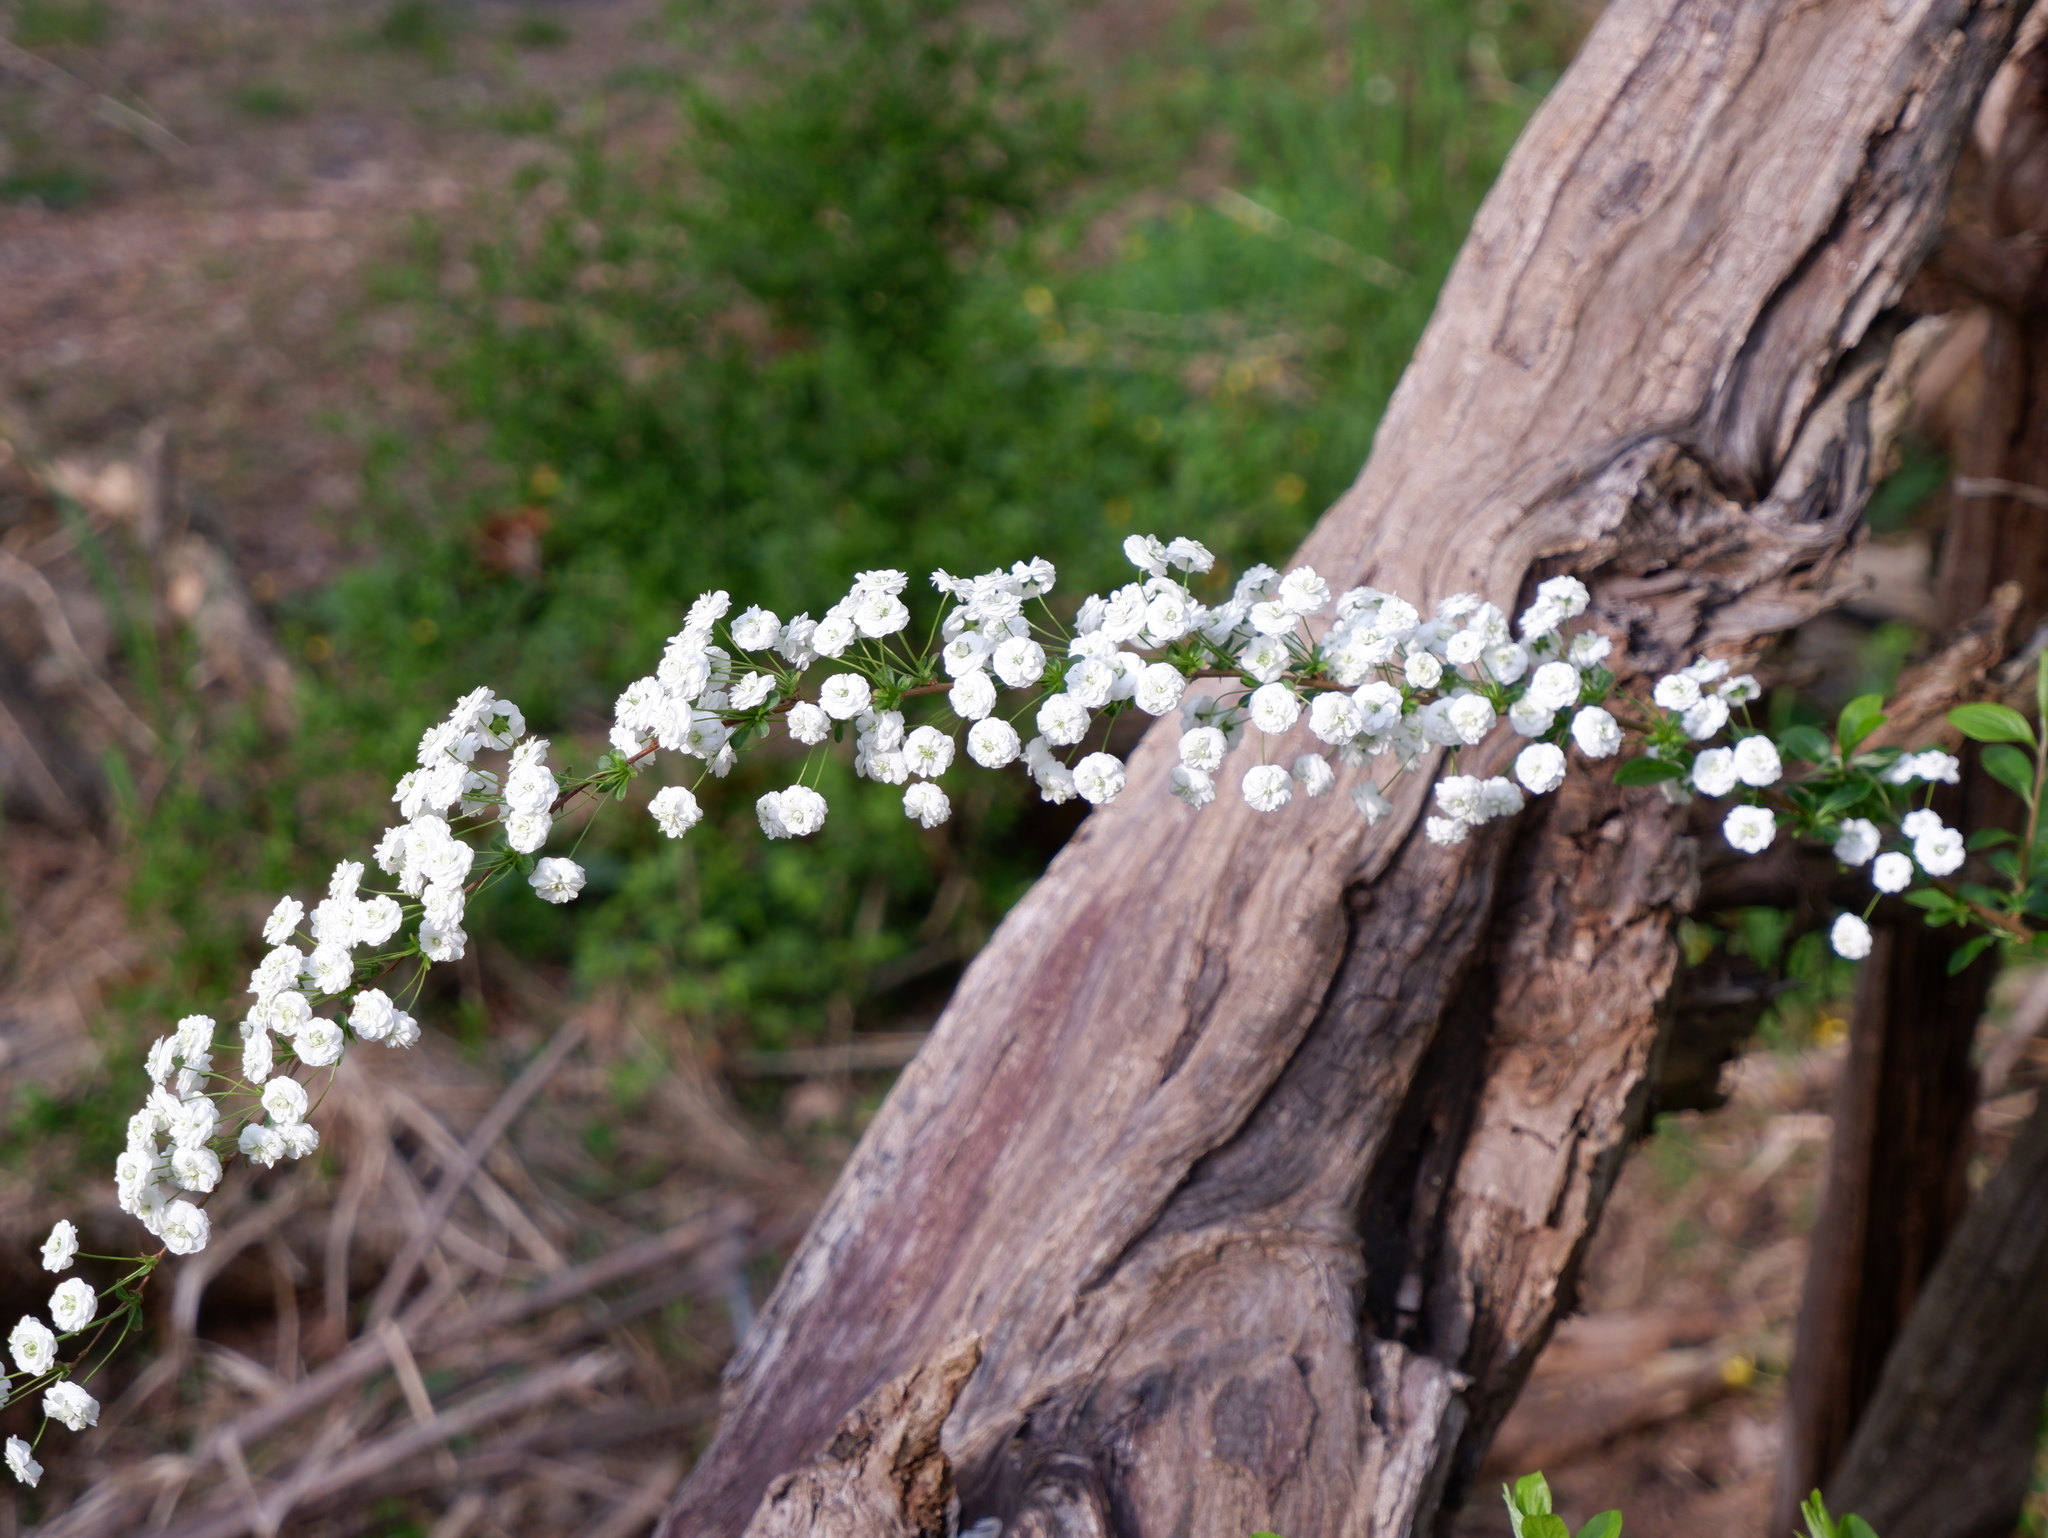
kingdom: Plantae
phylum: Tracheophyta
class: Magnoliopsida
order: Rosales
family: Rosaceae
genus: Spiraea
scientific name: Spiraea prunifolia
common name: Bridal-wreath spiraea
